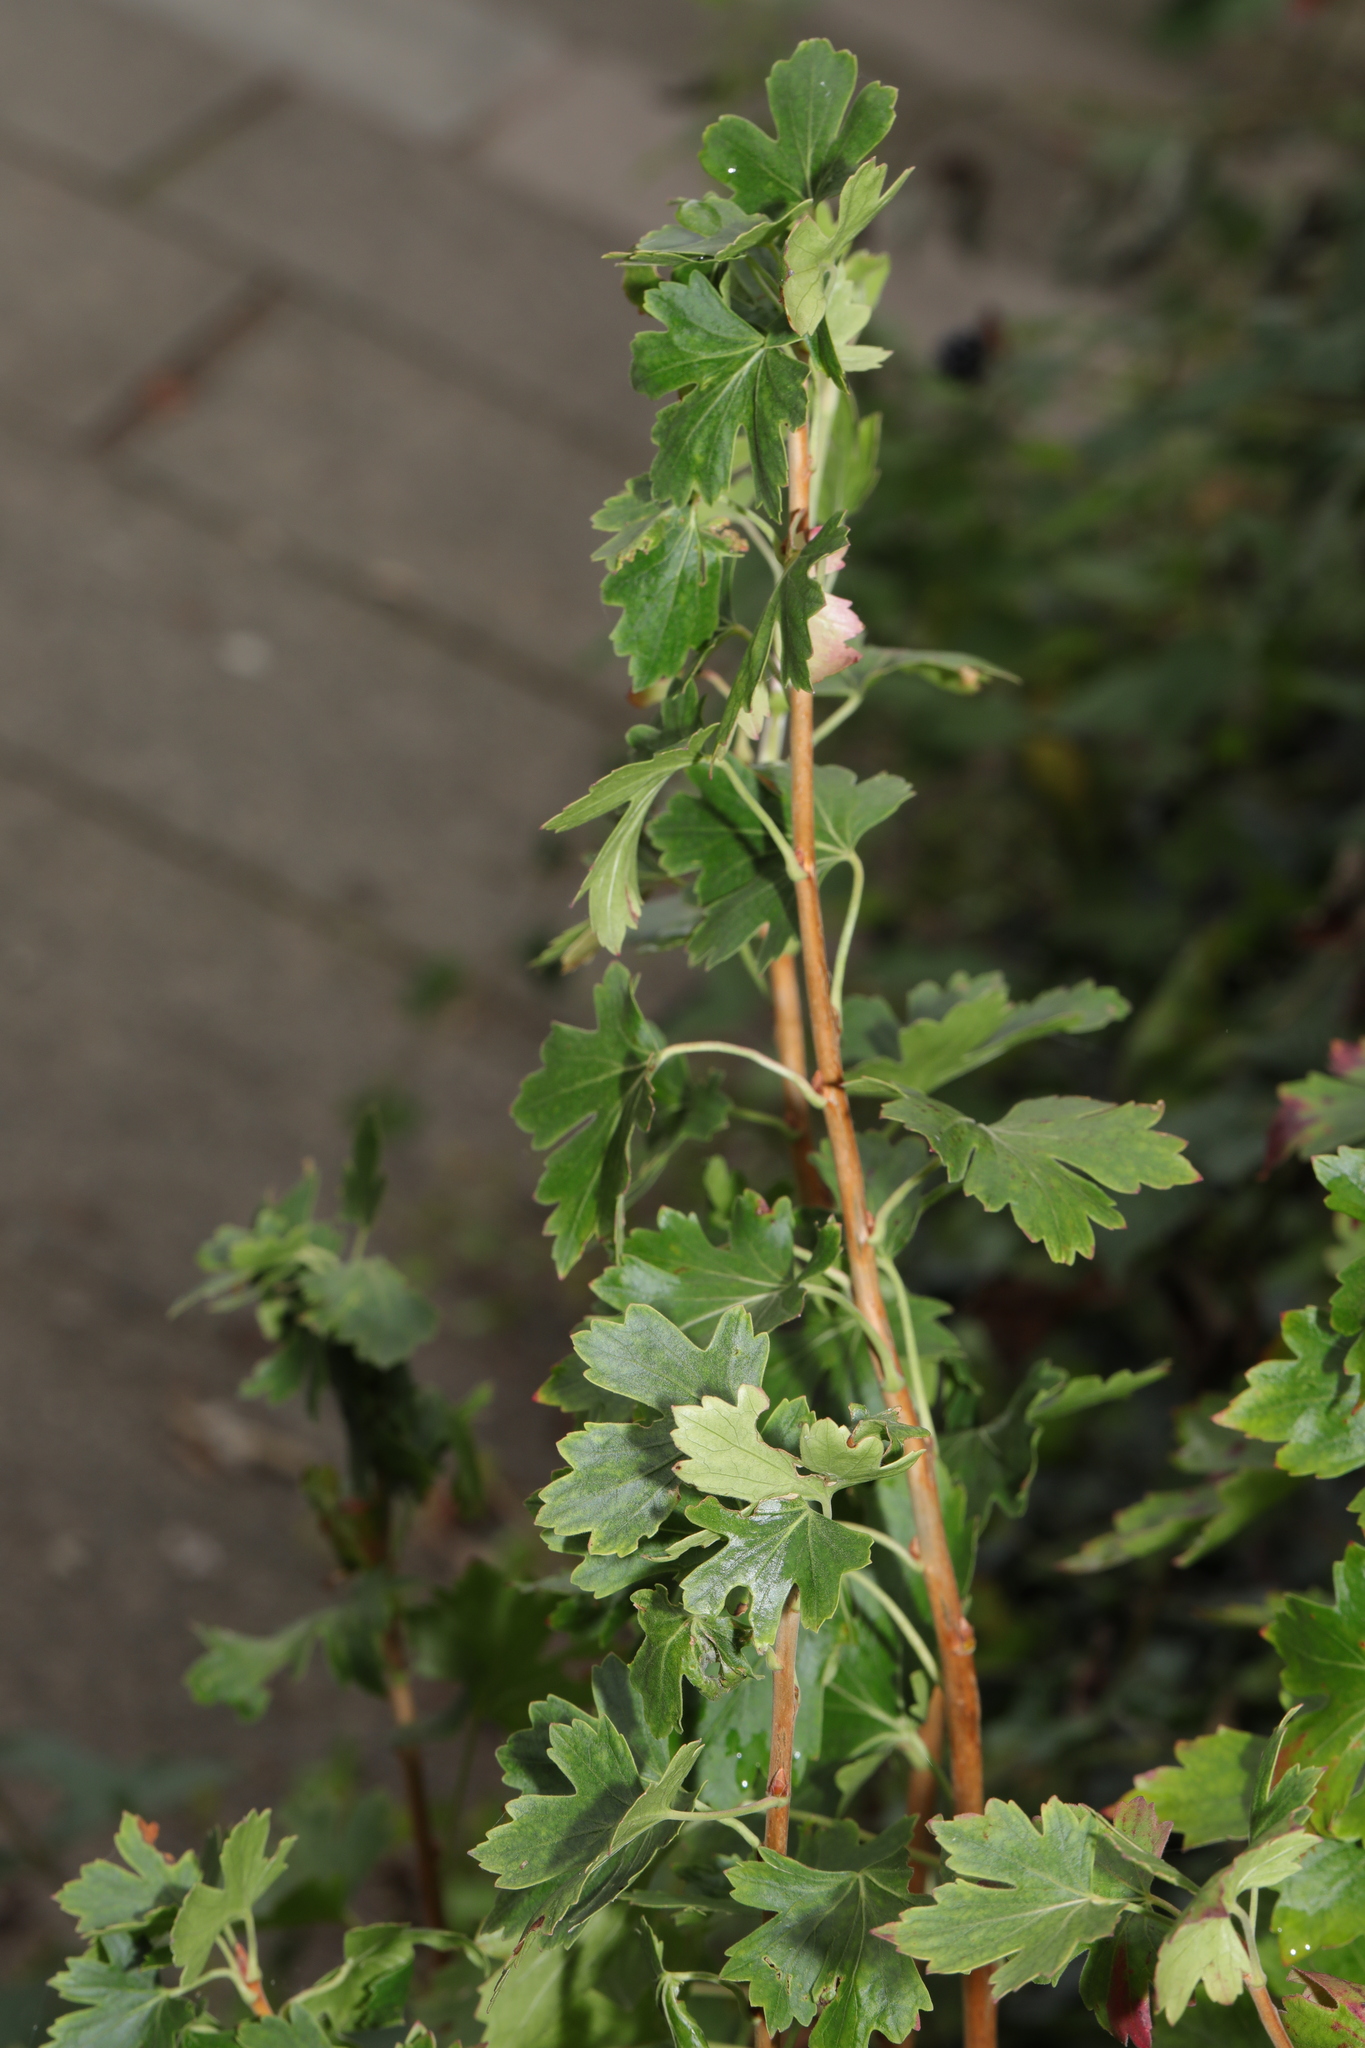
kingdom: Plantae
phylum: Tracheophyta
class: Magnoliopsida
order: Rosales
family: Rosaceae
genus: Crataegus
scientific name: Crataegus monogyna
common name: Hawthorn
